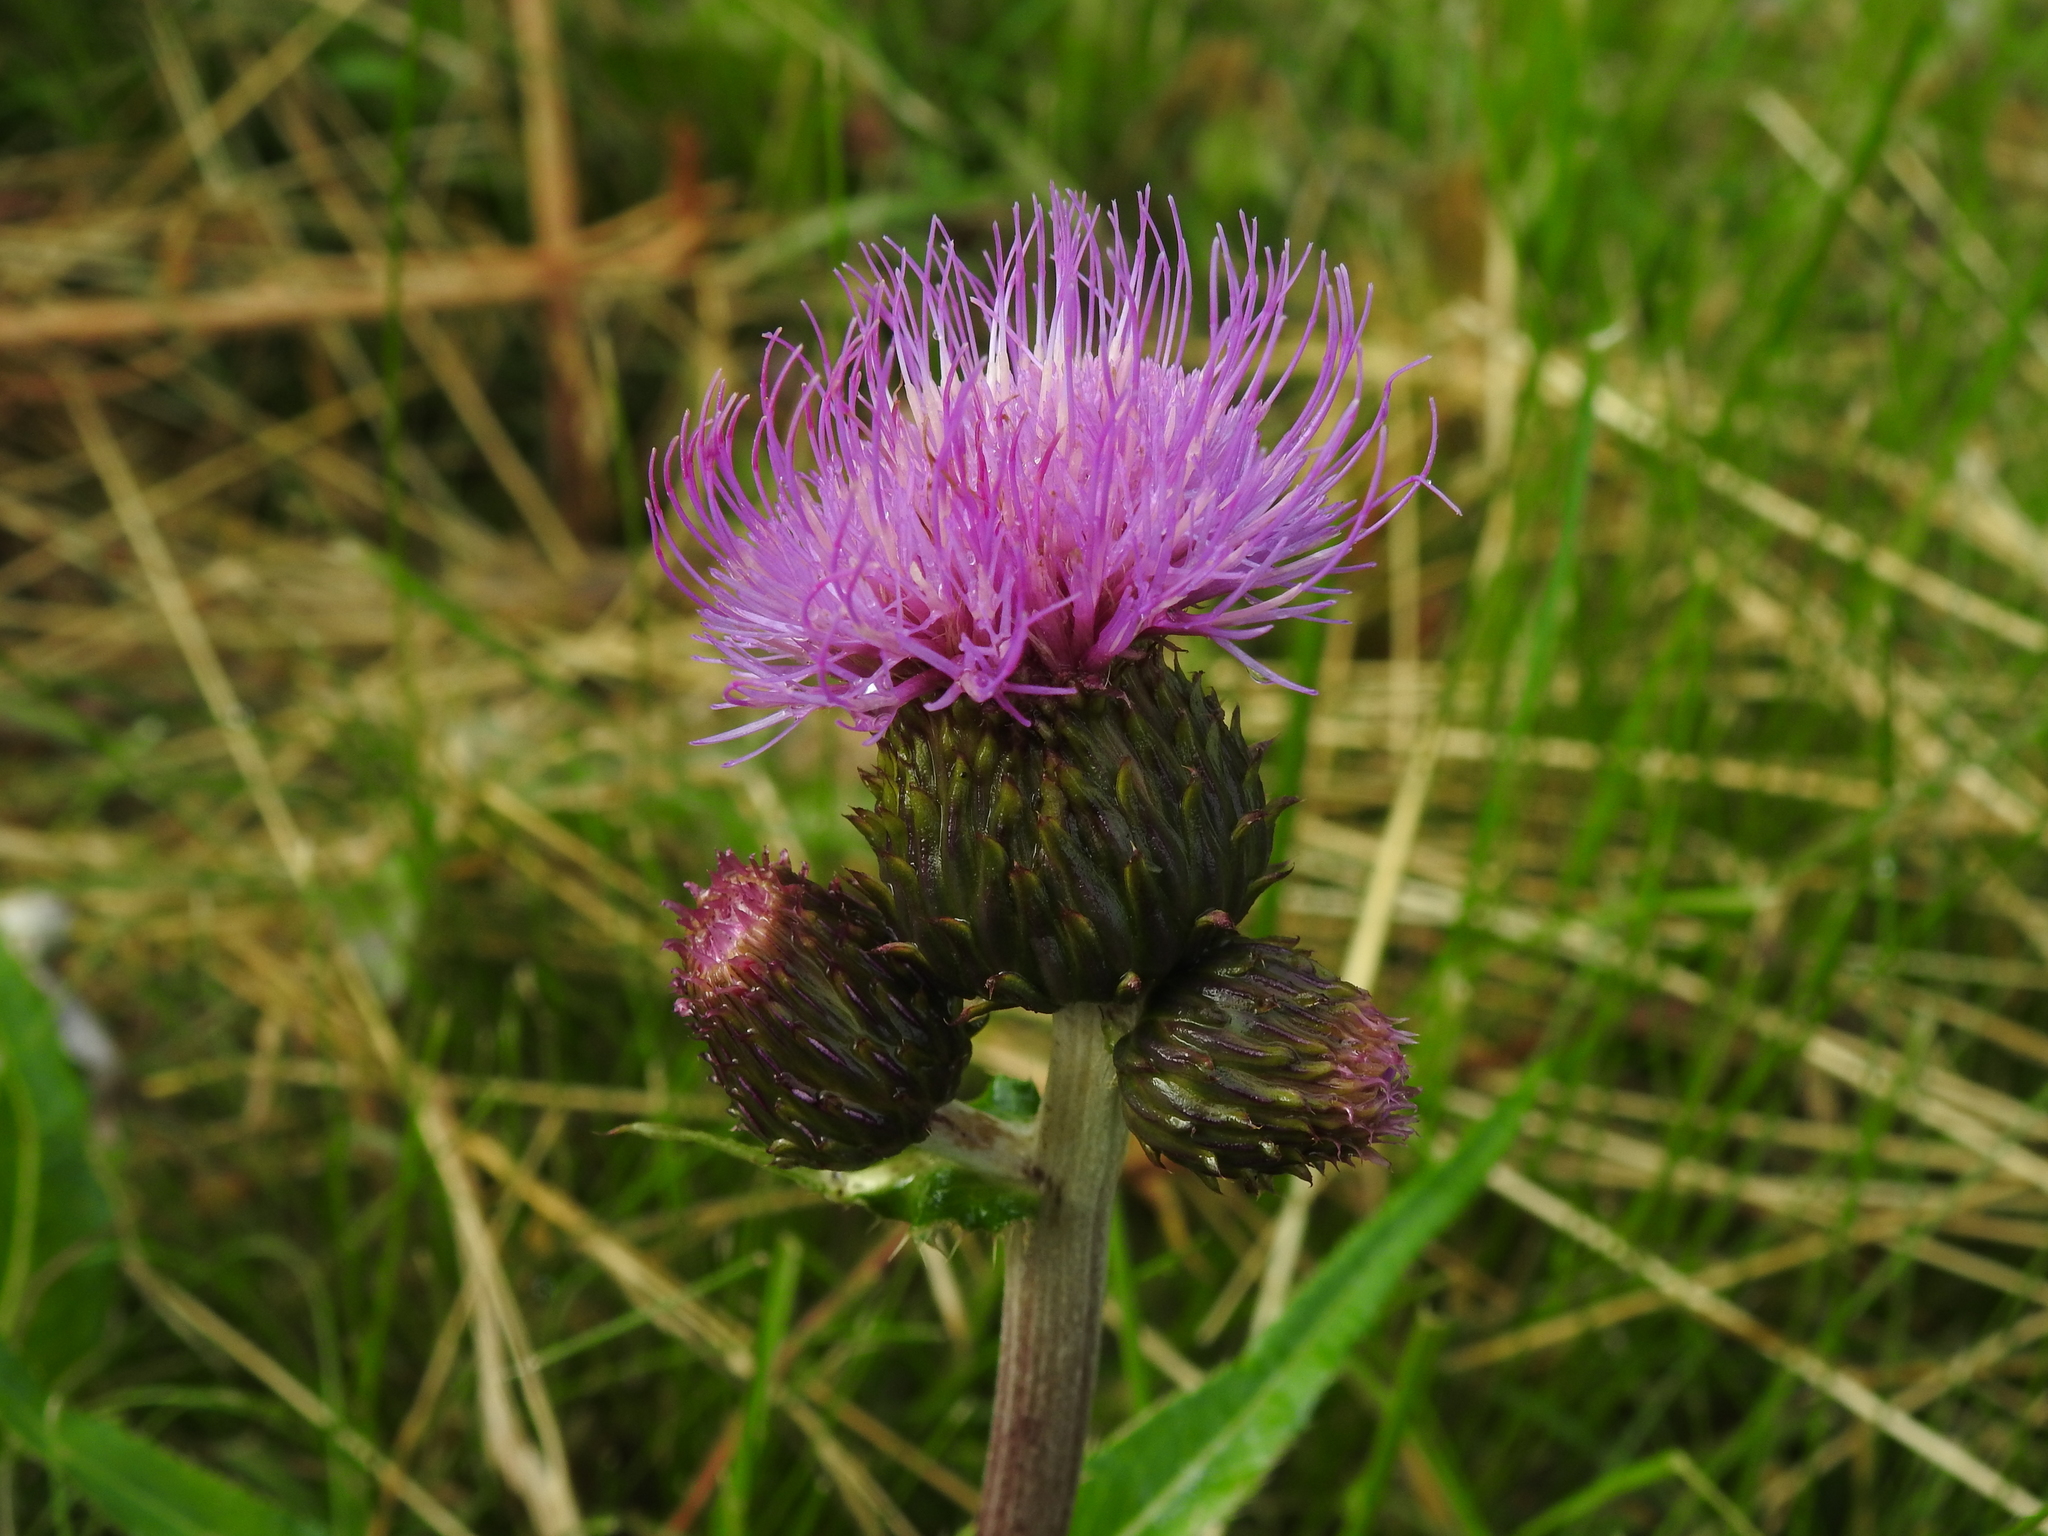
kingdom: Plantae
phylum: Tracheophyta
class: Magnoliopsida
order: Asterales
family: Asteraceae
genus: Cirsium
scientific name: Cirsium heterophyllum
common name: Melancholy thistle
